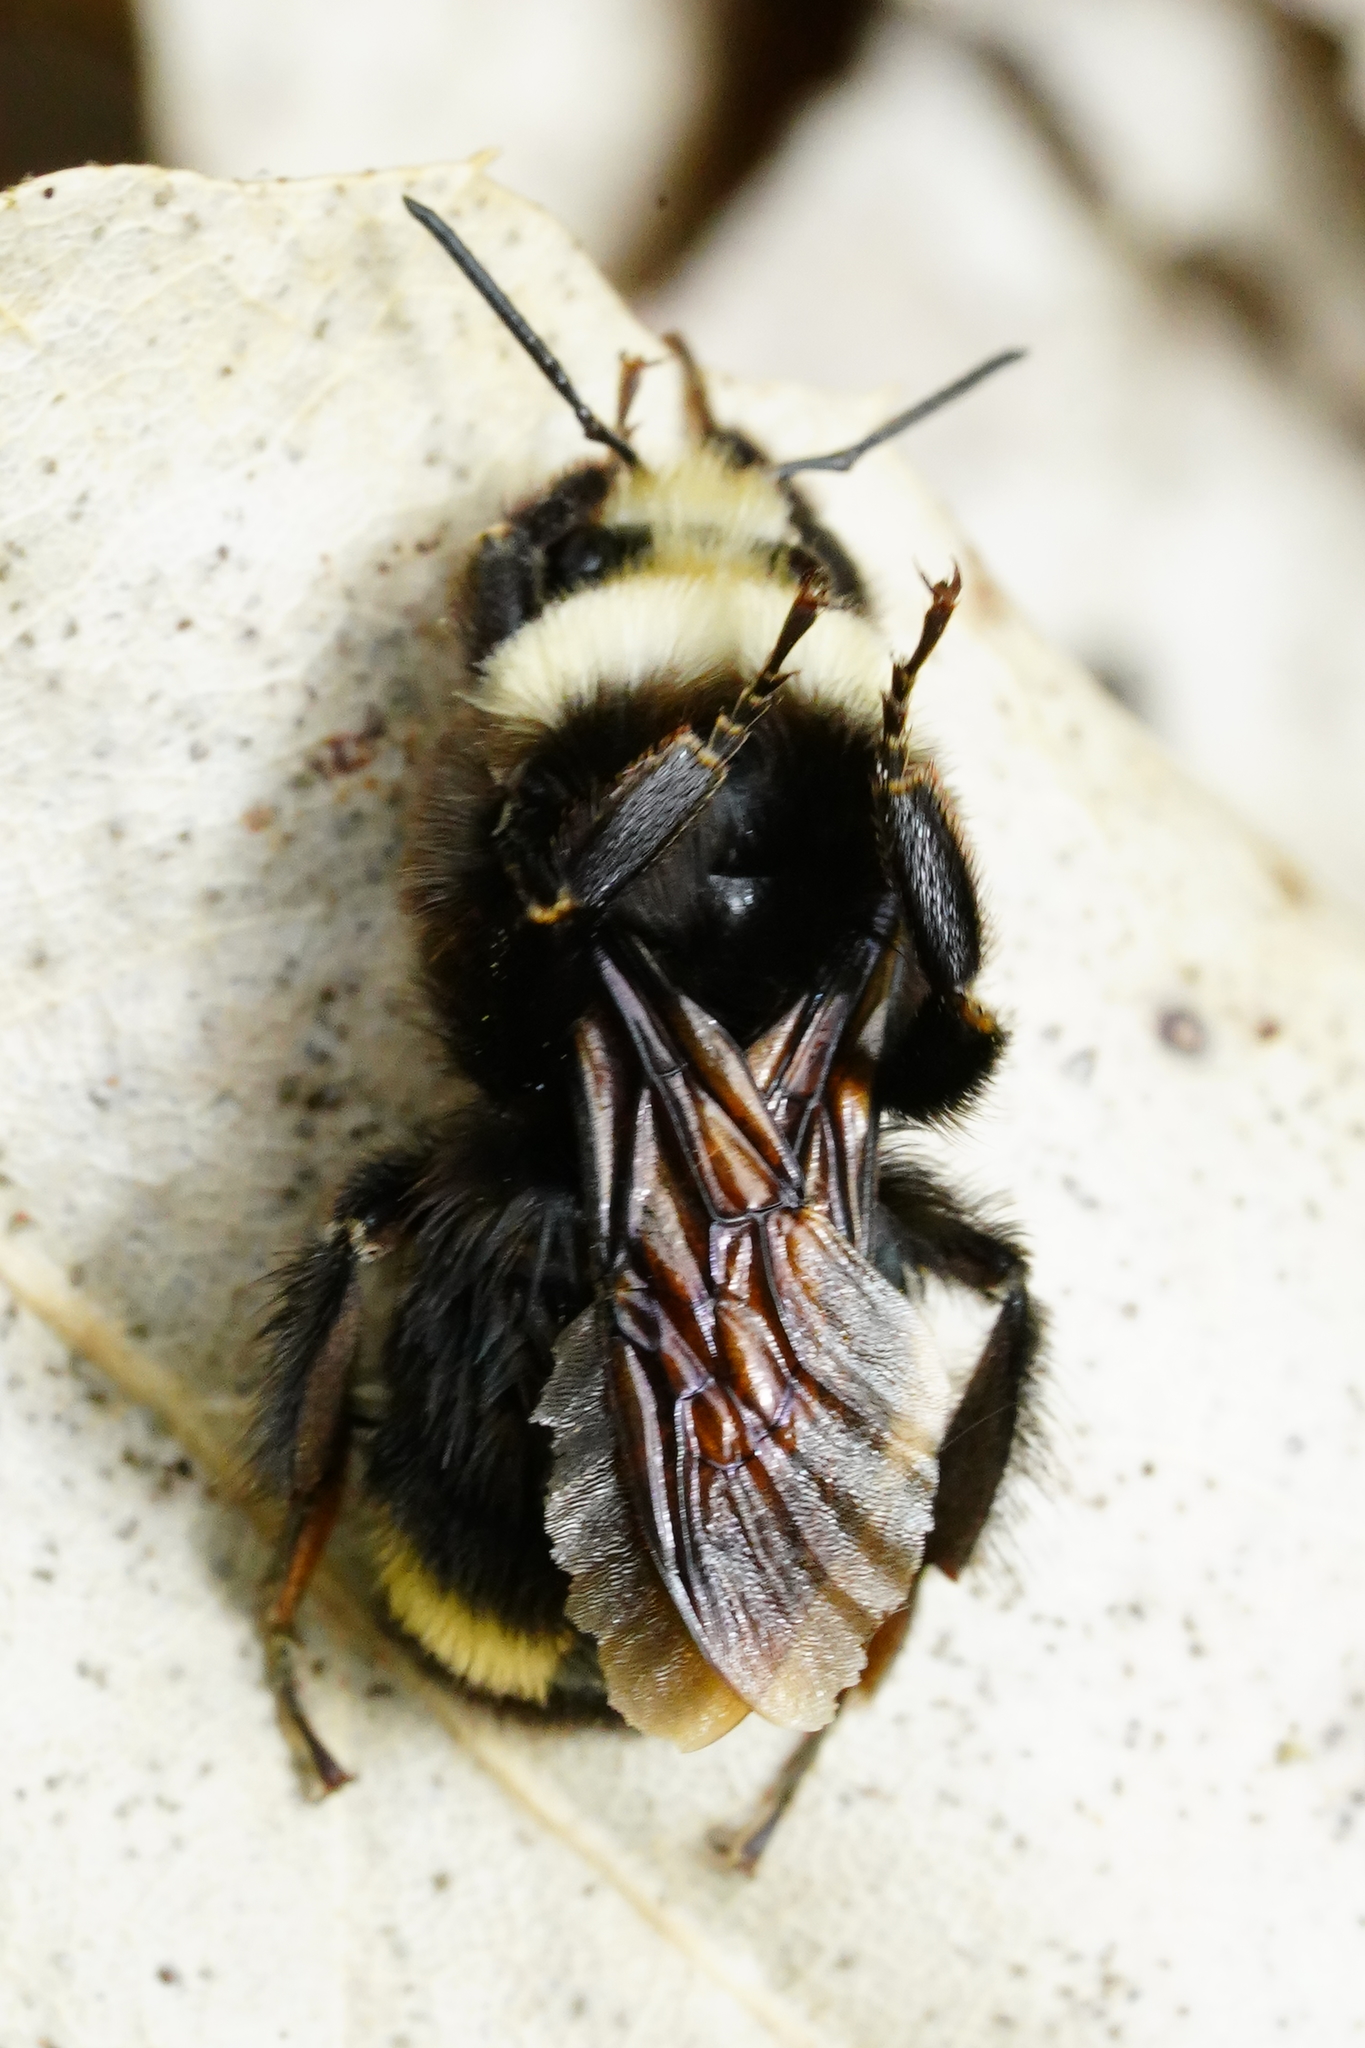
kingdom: Animalia
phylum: Arthropoda
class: Insecta
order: Hymenoptera
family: Apidae
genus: Bombus
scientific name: Bombus vosnesenskii
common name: Vosnesensky bumble bee
